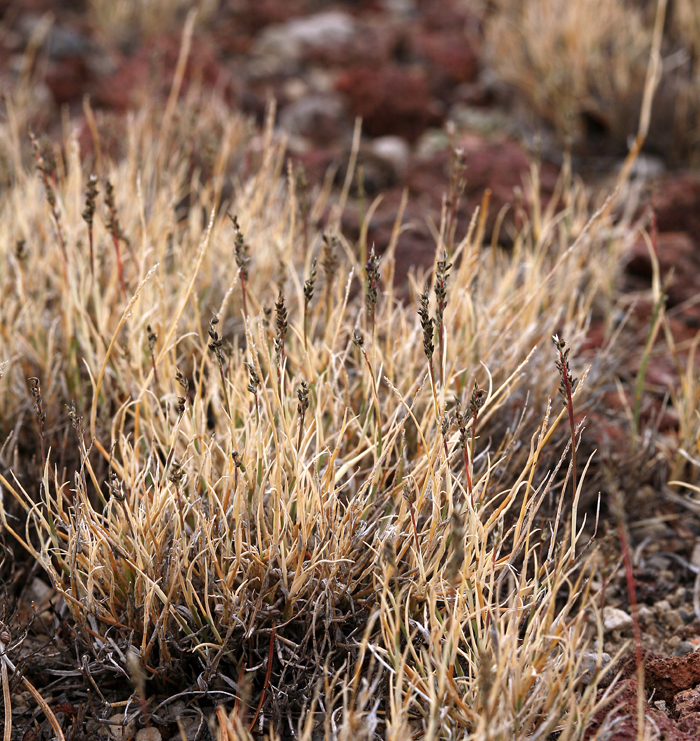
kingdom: Plantae
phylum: Tracheophyta
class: Liliopsida
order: Poales
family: Poaceae
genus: Muhlenbergia
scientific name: Muhlenbergia richardsonis
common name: Mat muhly
